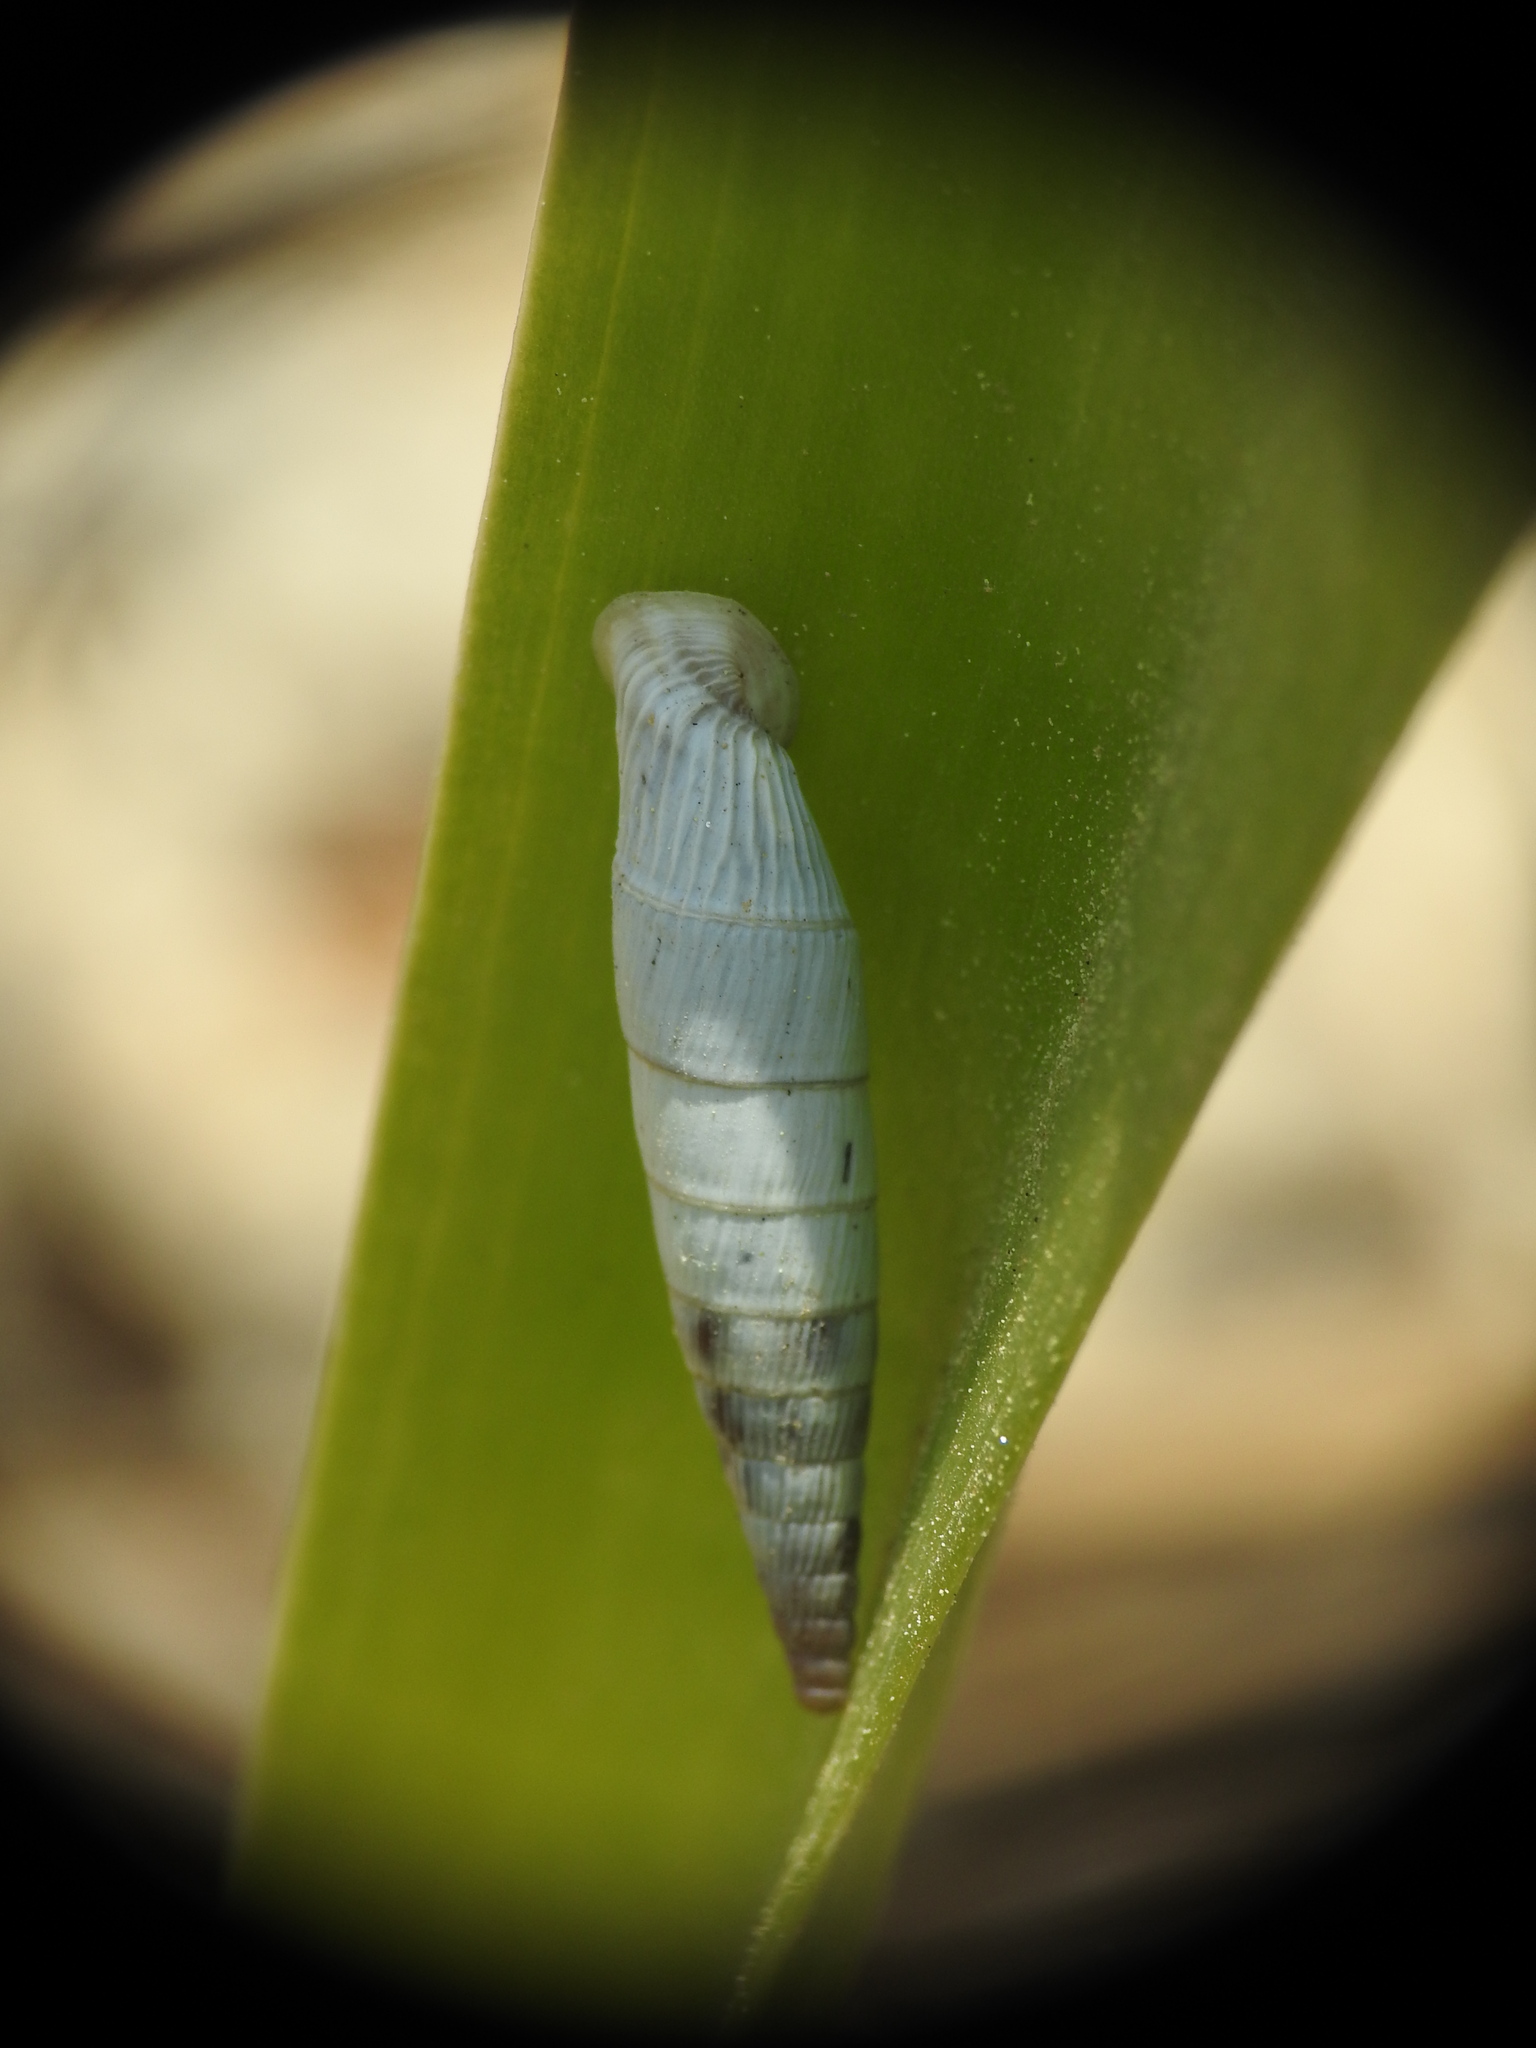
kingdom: Animalia
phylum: Mollusca
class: Gastropoda
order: Stylommatophora
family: Clausiliidae
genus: Albinaria
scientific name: Albinaria cretensis
